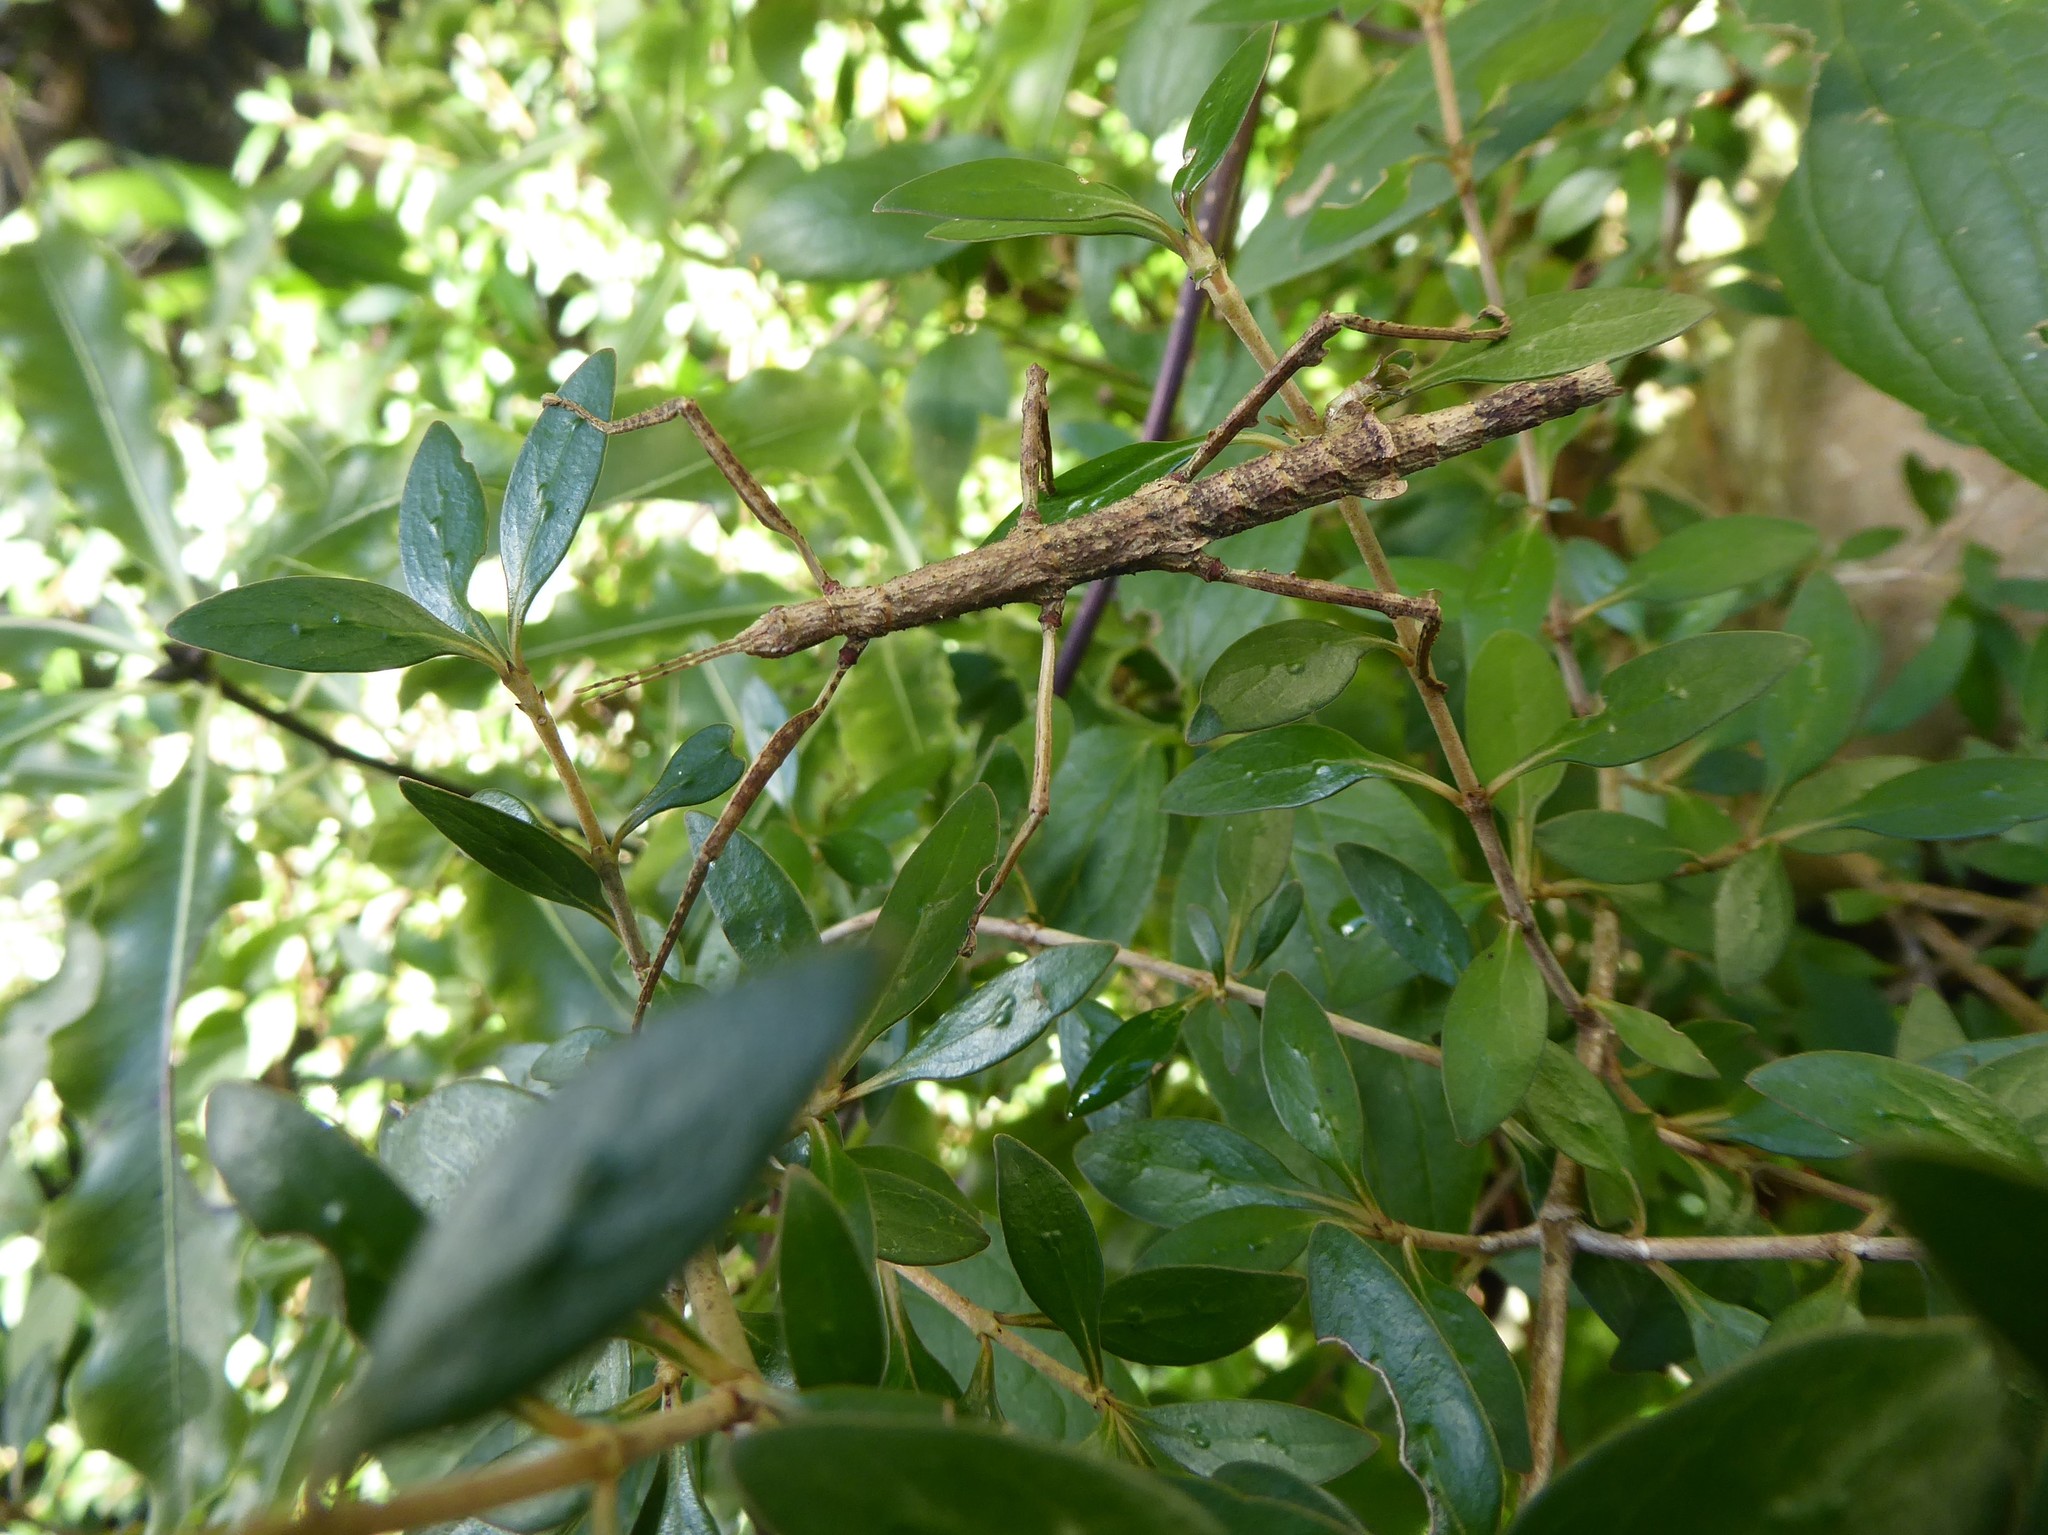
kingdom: Animalia
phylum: Arthropoda
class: Insecta
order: Phasmida
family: Phasmatidae
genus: Niveaphasma
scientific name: Niveaphasma annulatum
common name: Hutton's stick insect
